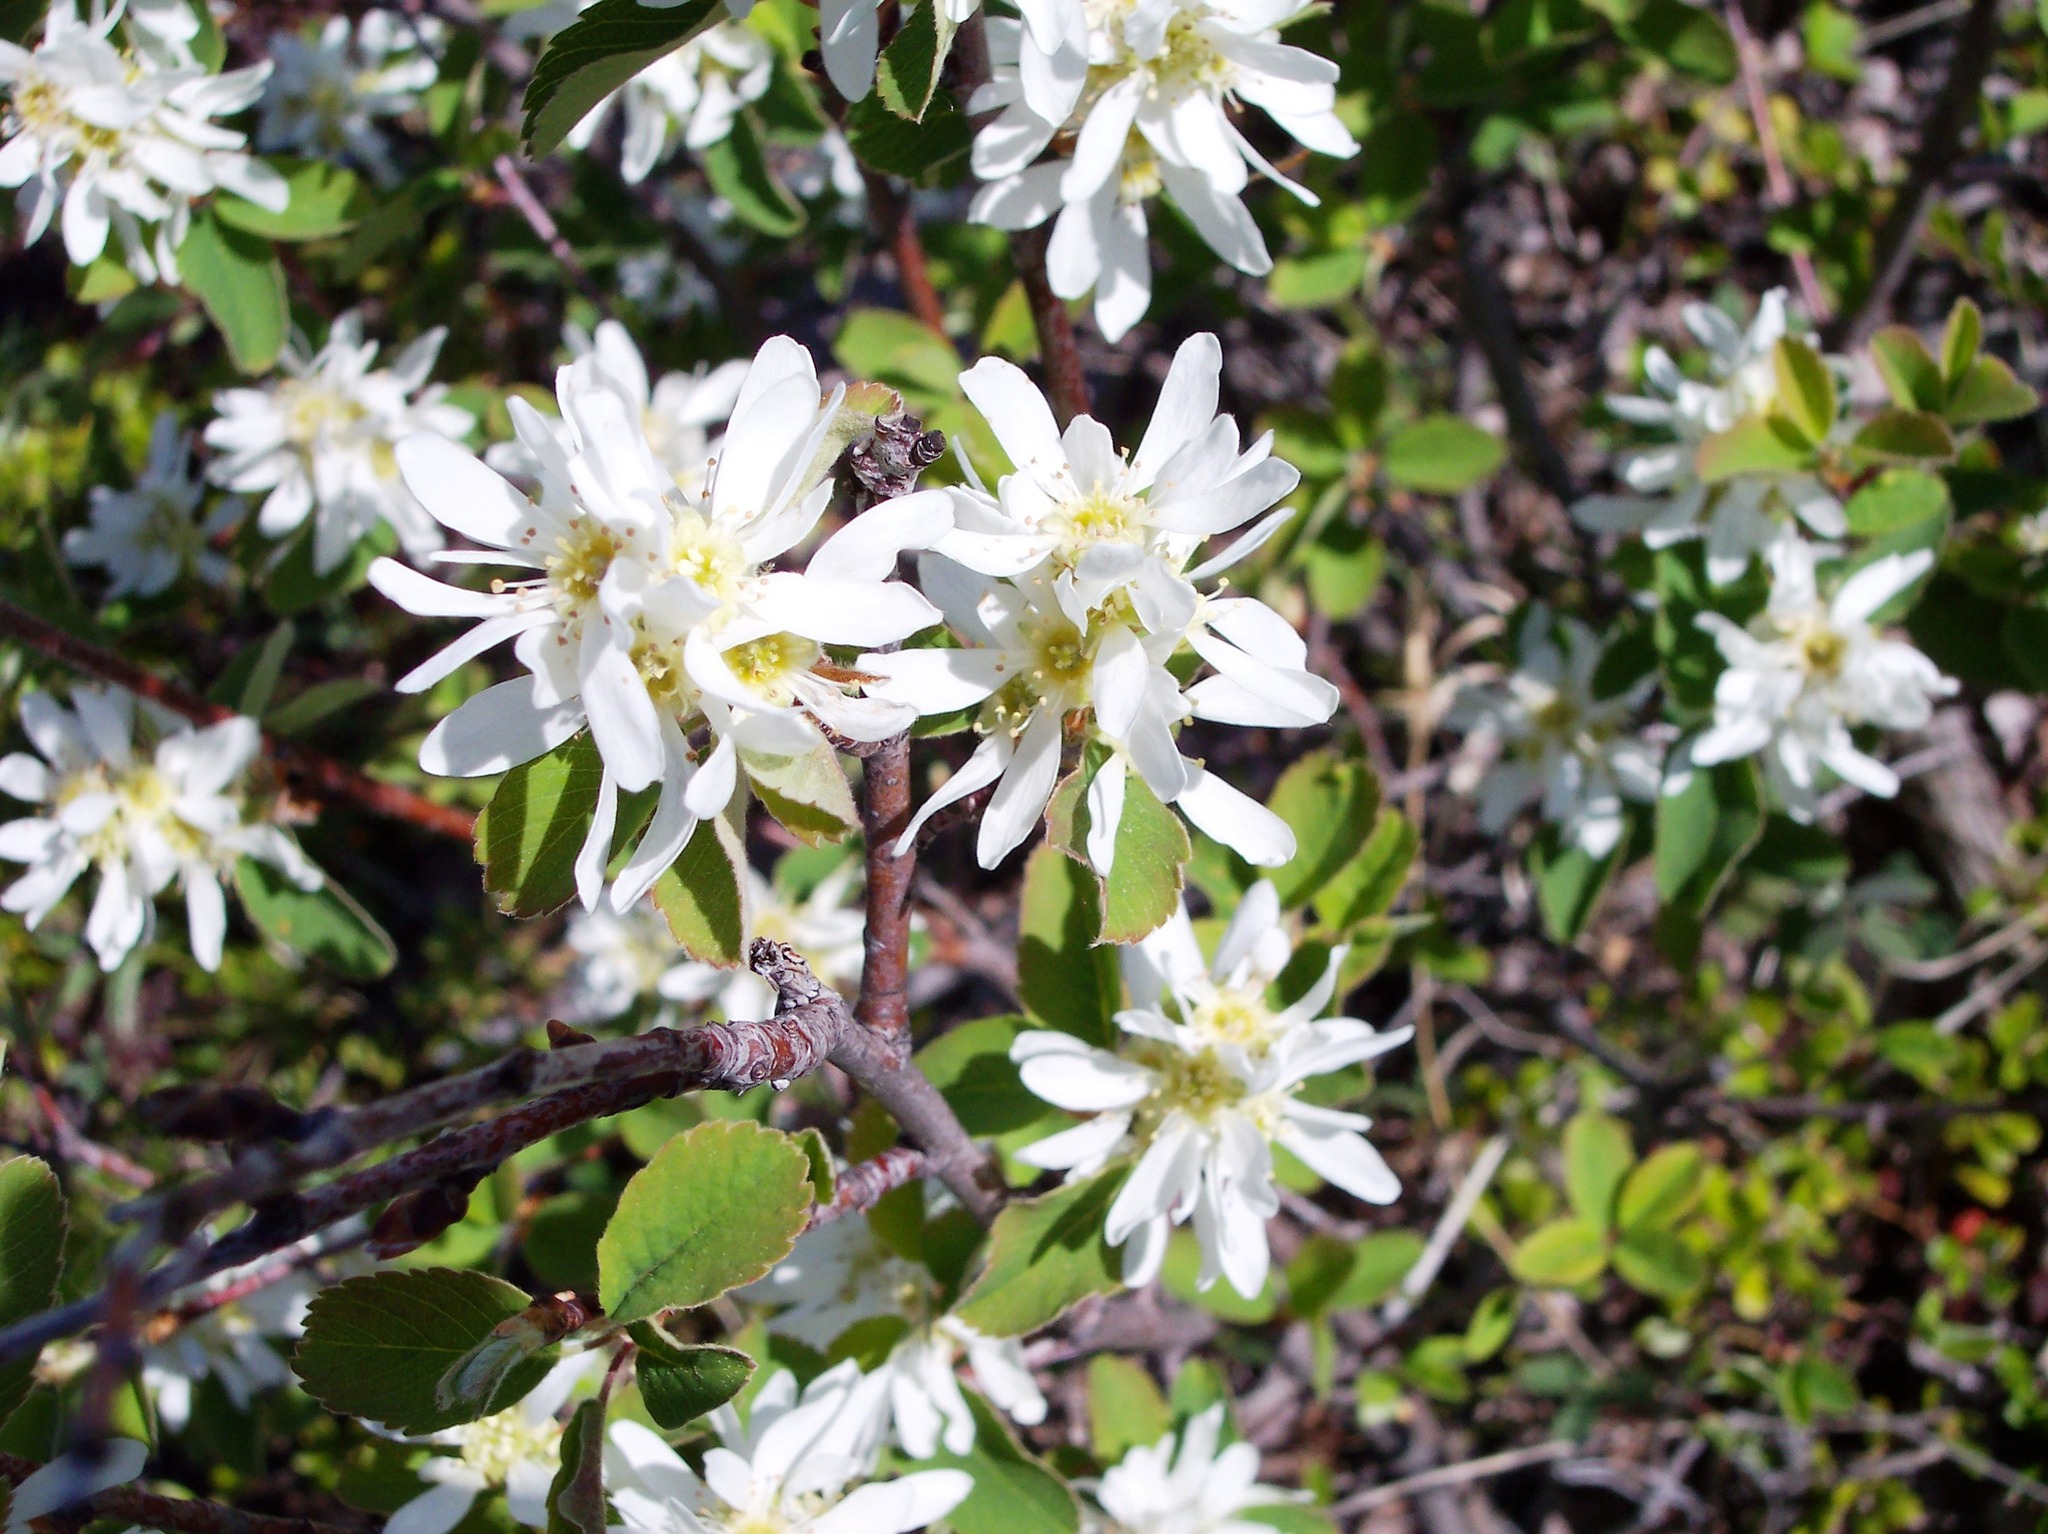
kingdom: Plantae
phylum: Tracheophyta
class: Magnoliopsida
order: Rosales
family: Rosaceae
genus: Amelanchier
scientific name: Amelanchier alnifolia
